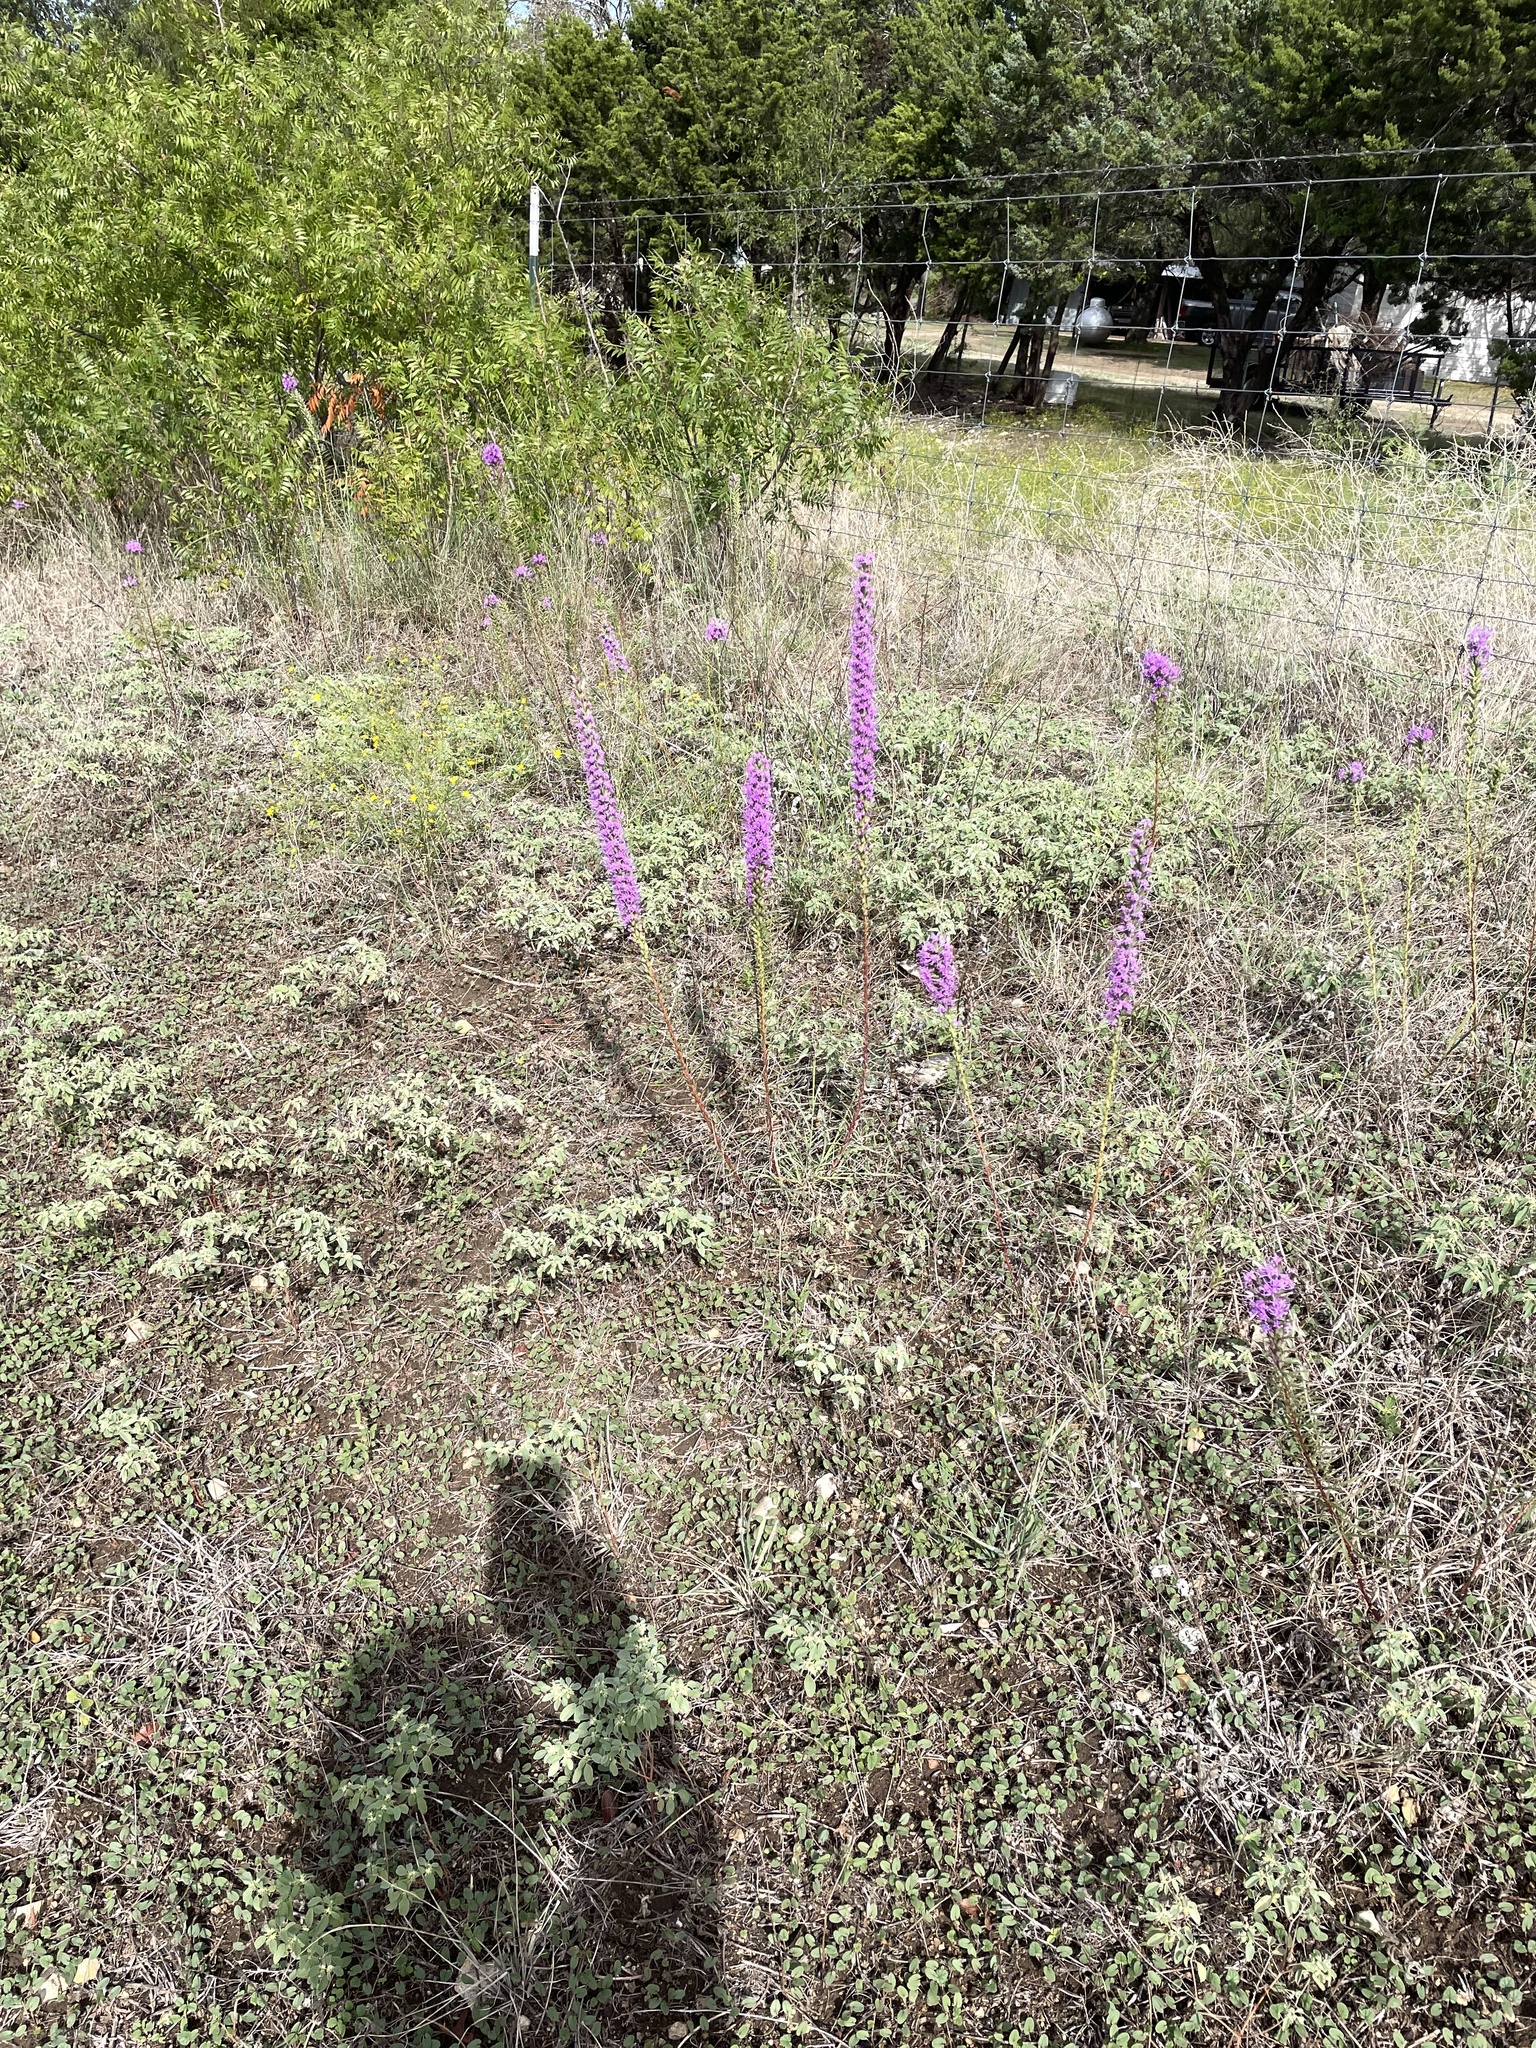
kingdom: Plantae
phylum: Tracheophyta
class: Magnoliopsida
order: Asterales
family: Asteraceae
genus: Liatris
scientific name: Liatris punctata
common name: Dotted gayfeather
